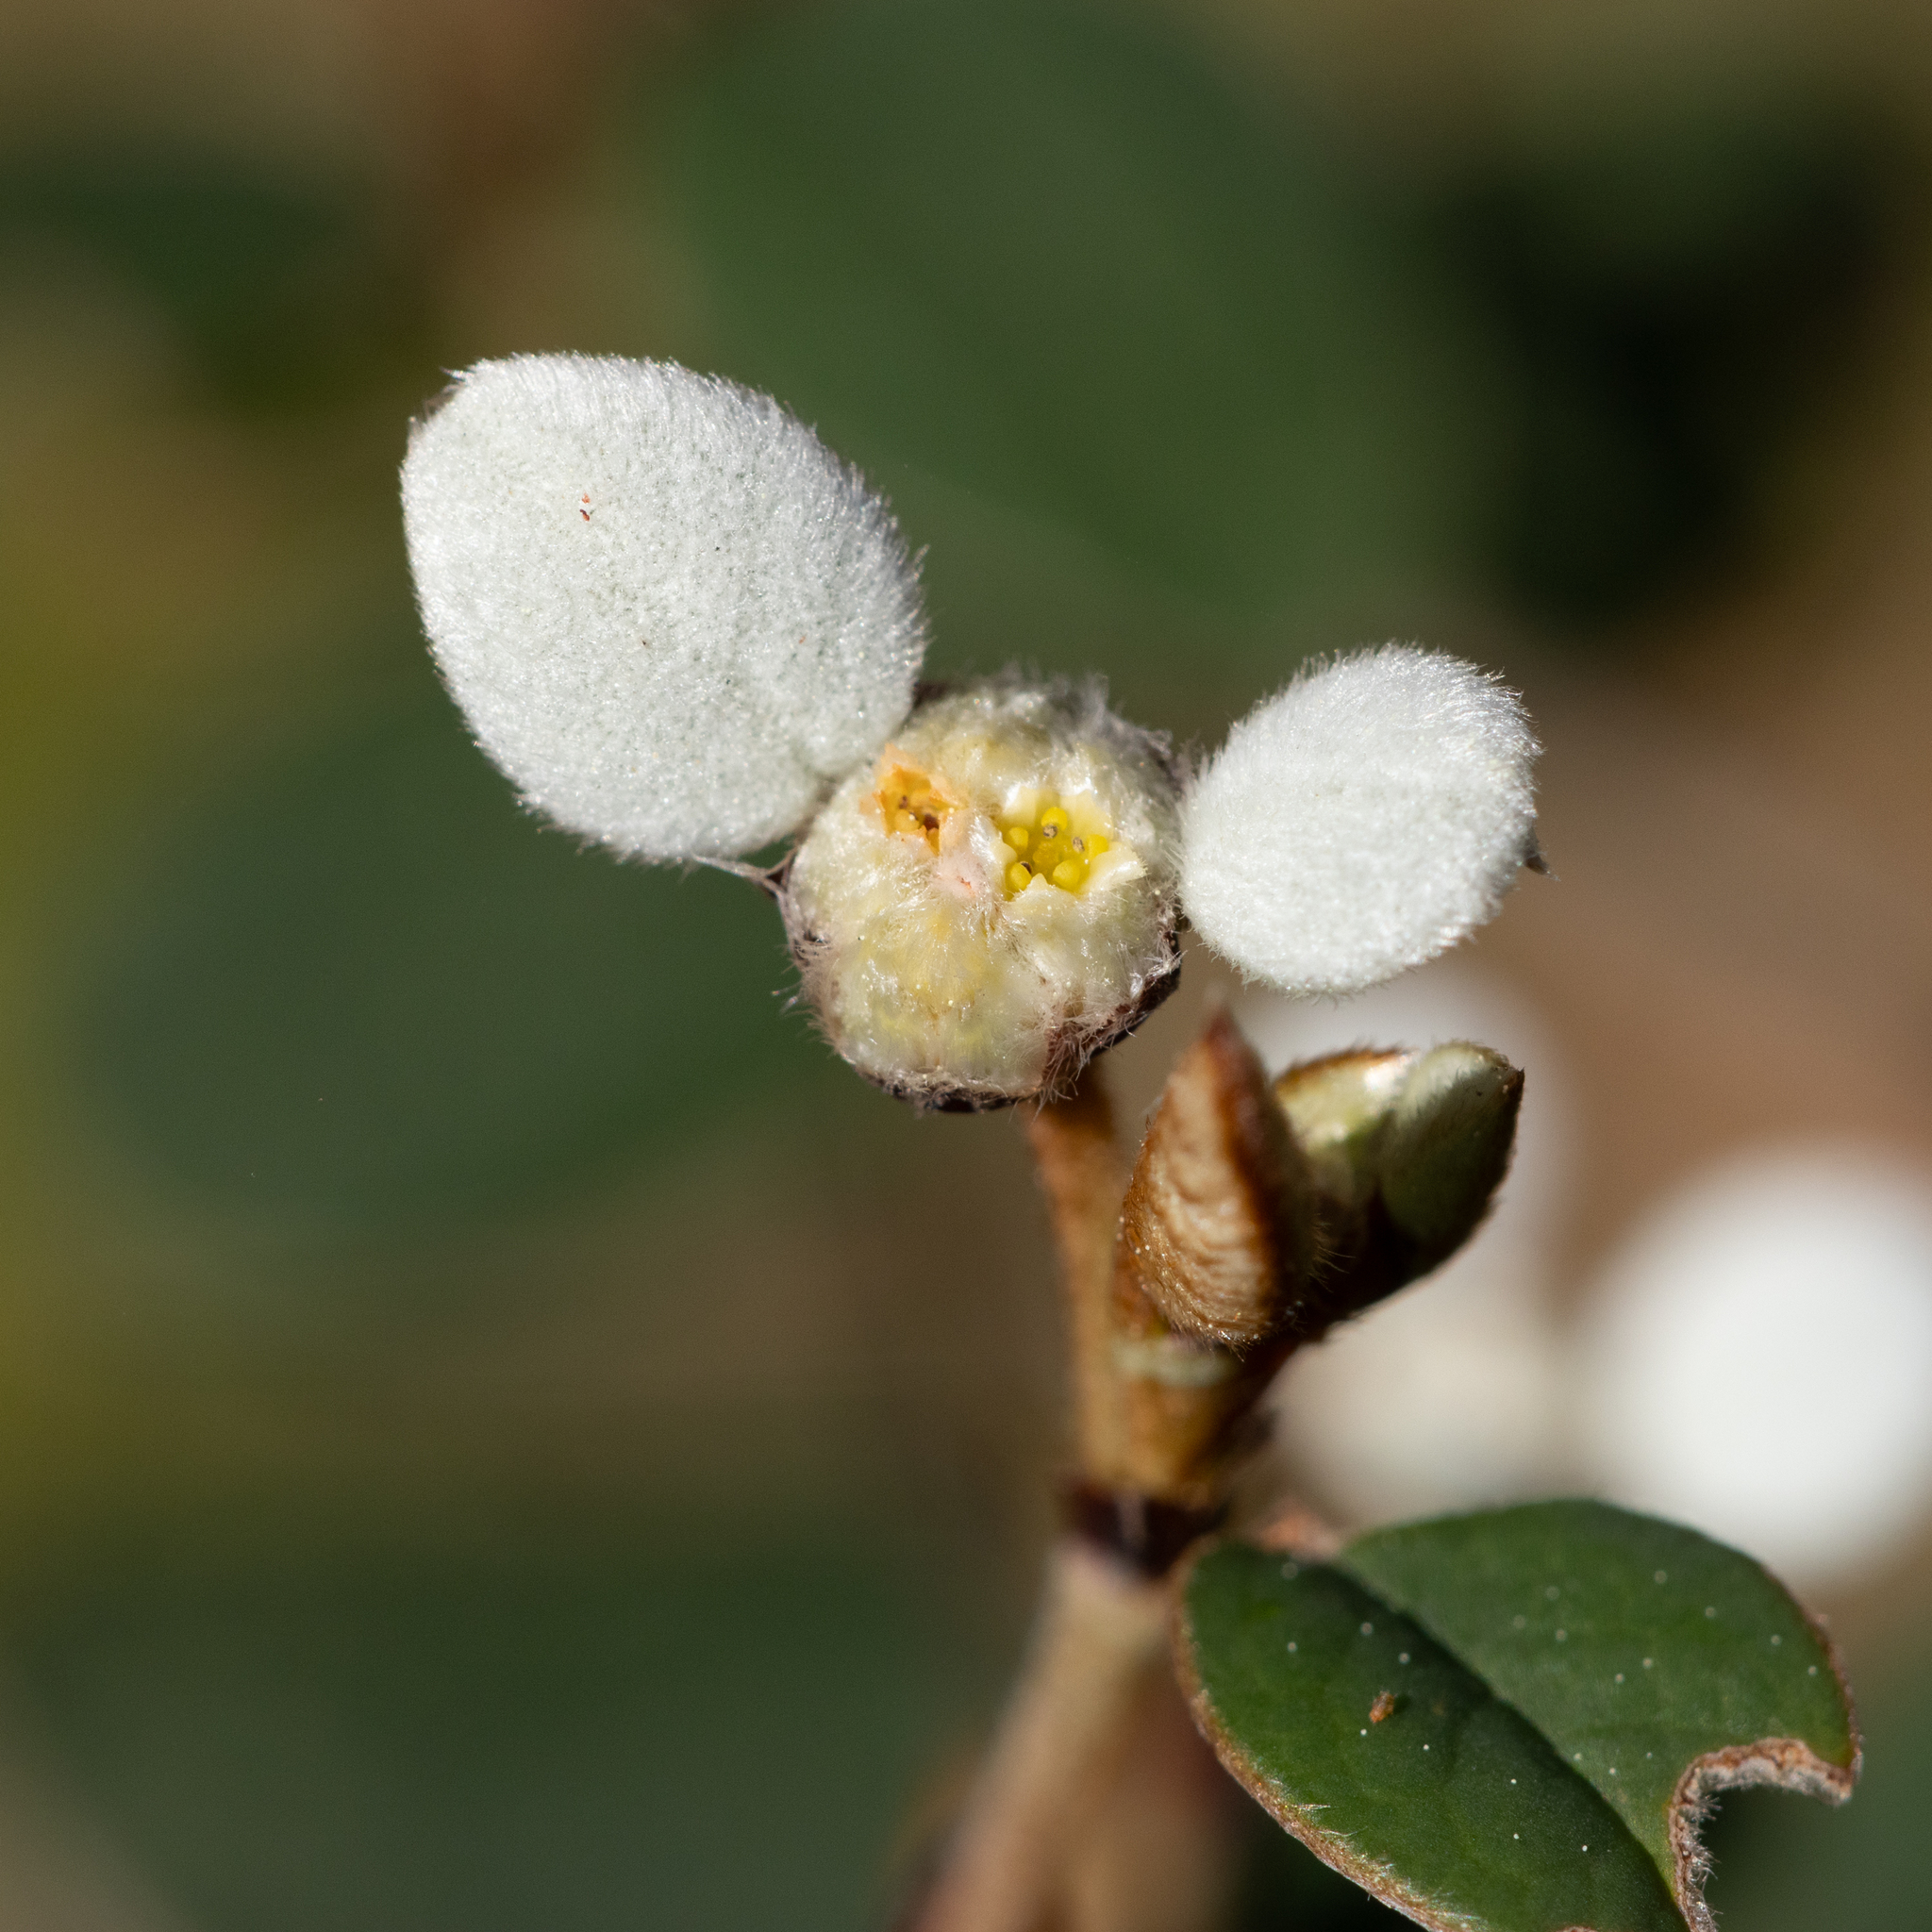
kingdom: Plantae
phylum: Tracheophyta
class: Magnoliopsida
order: Rosales
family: Rhamnaceae
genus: Spyridium
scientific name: Spyridium thymifolium
